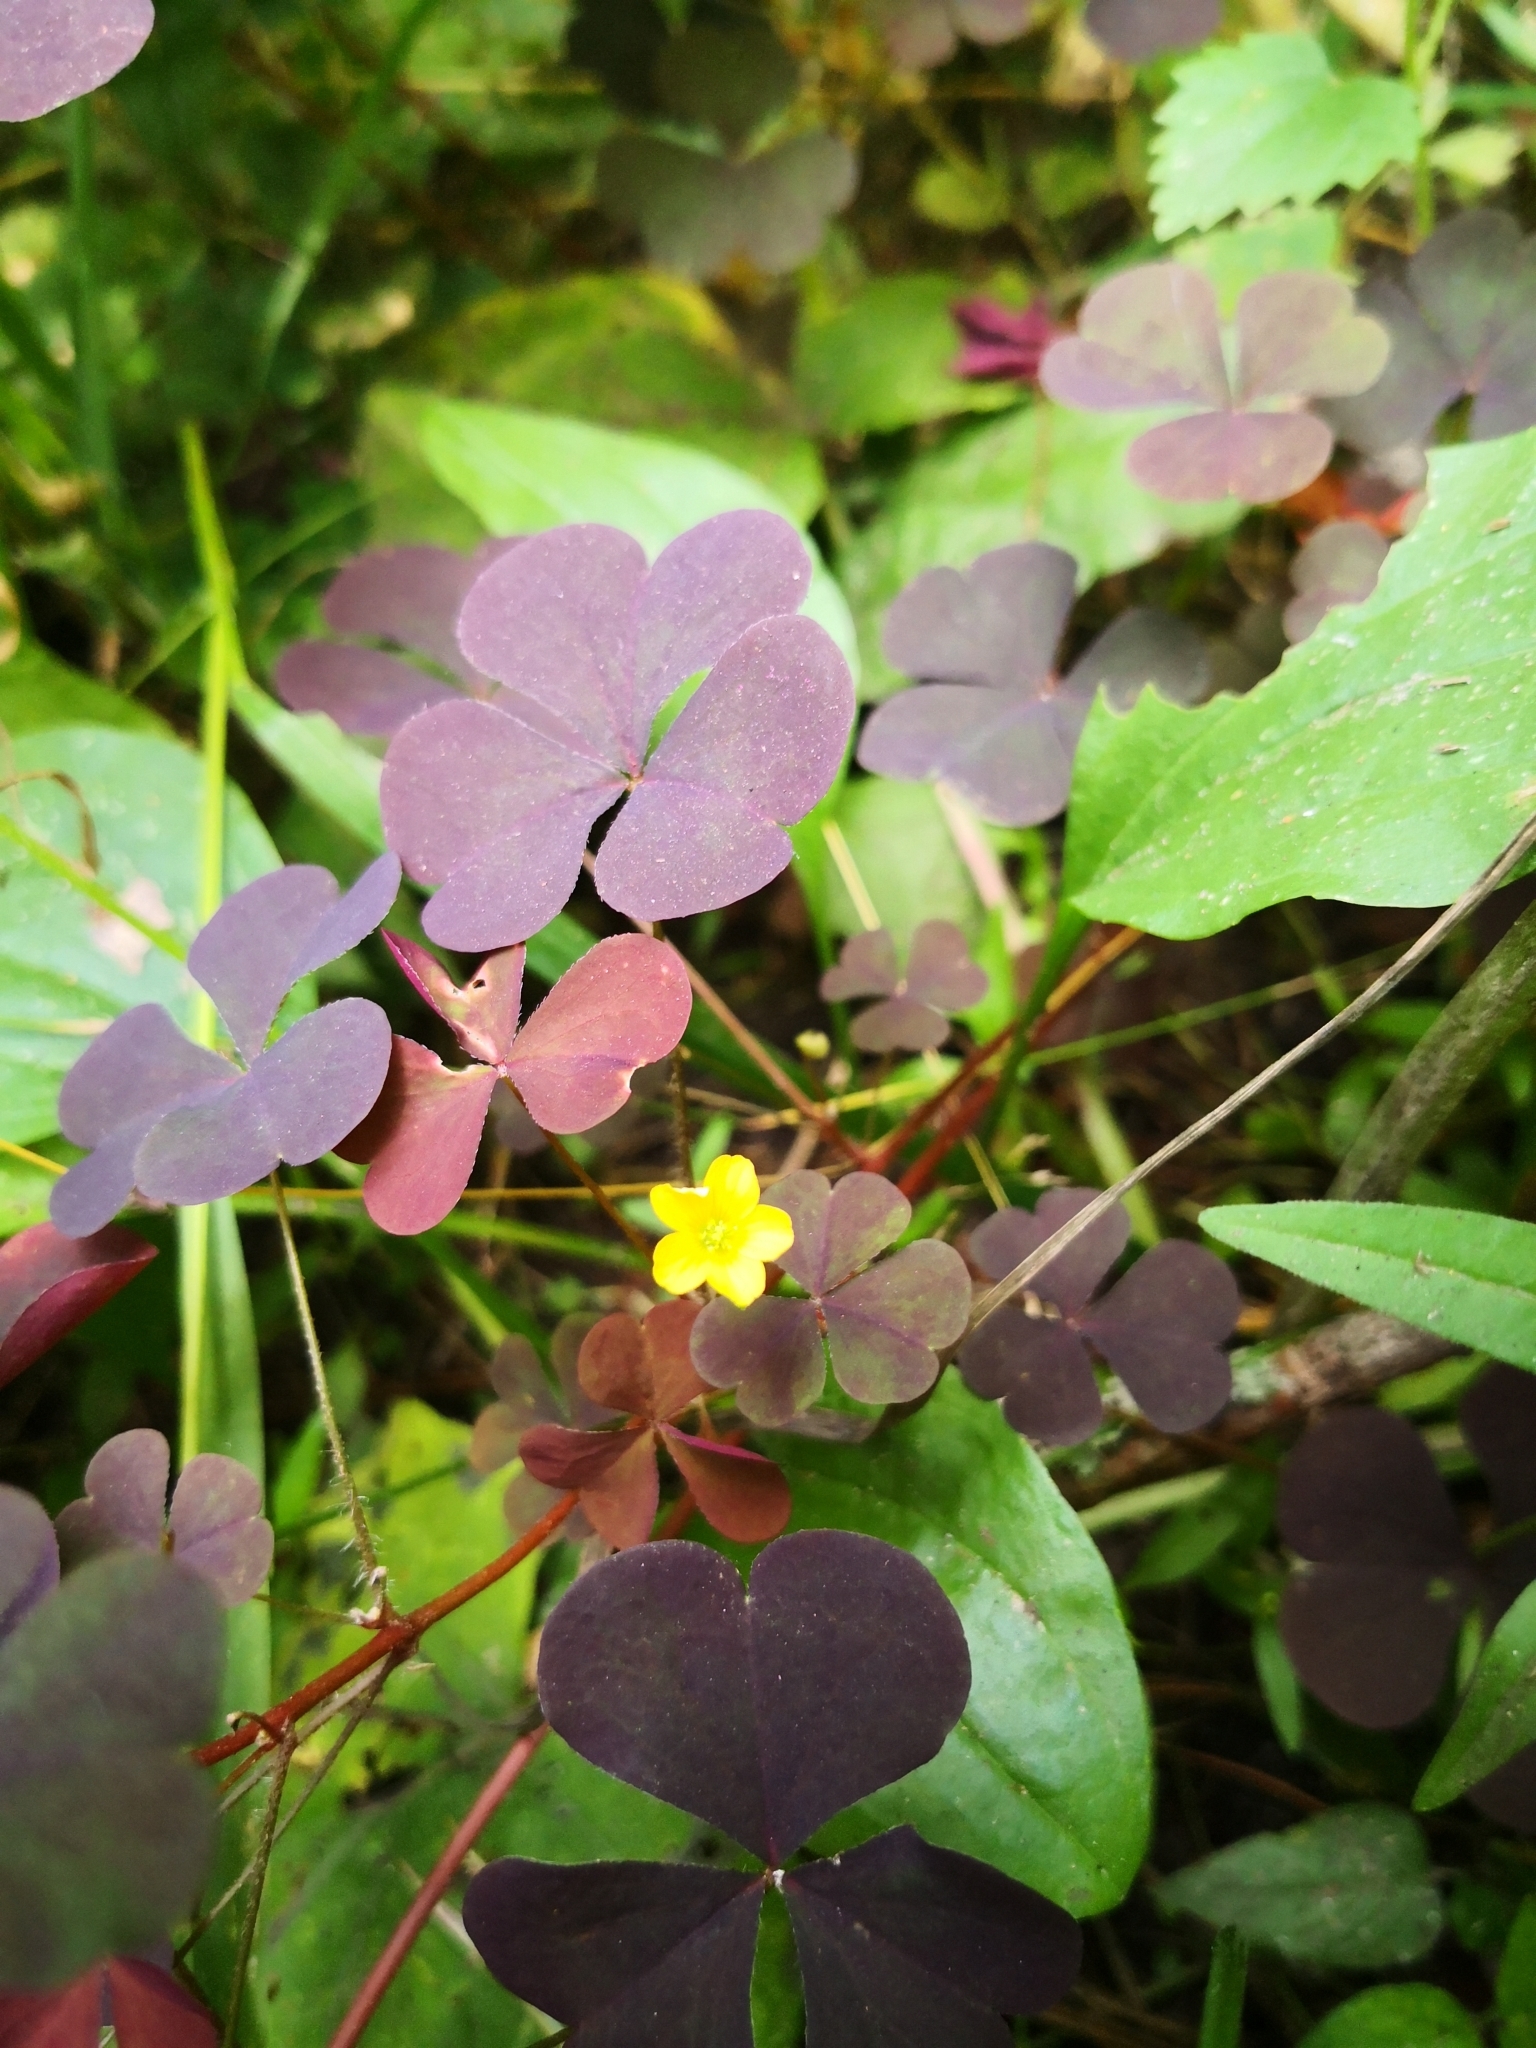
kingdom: Plantae
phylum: Tracheophyta
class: Magnoliopsida
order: Oxalidales
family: Oxalidaceae
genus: Oxalis
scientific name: Oxalis stricta
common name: Upright yellow-sorrel
